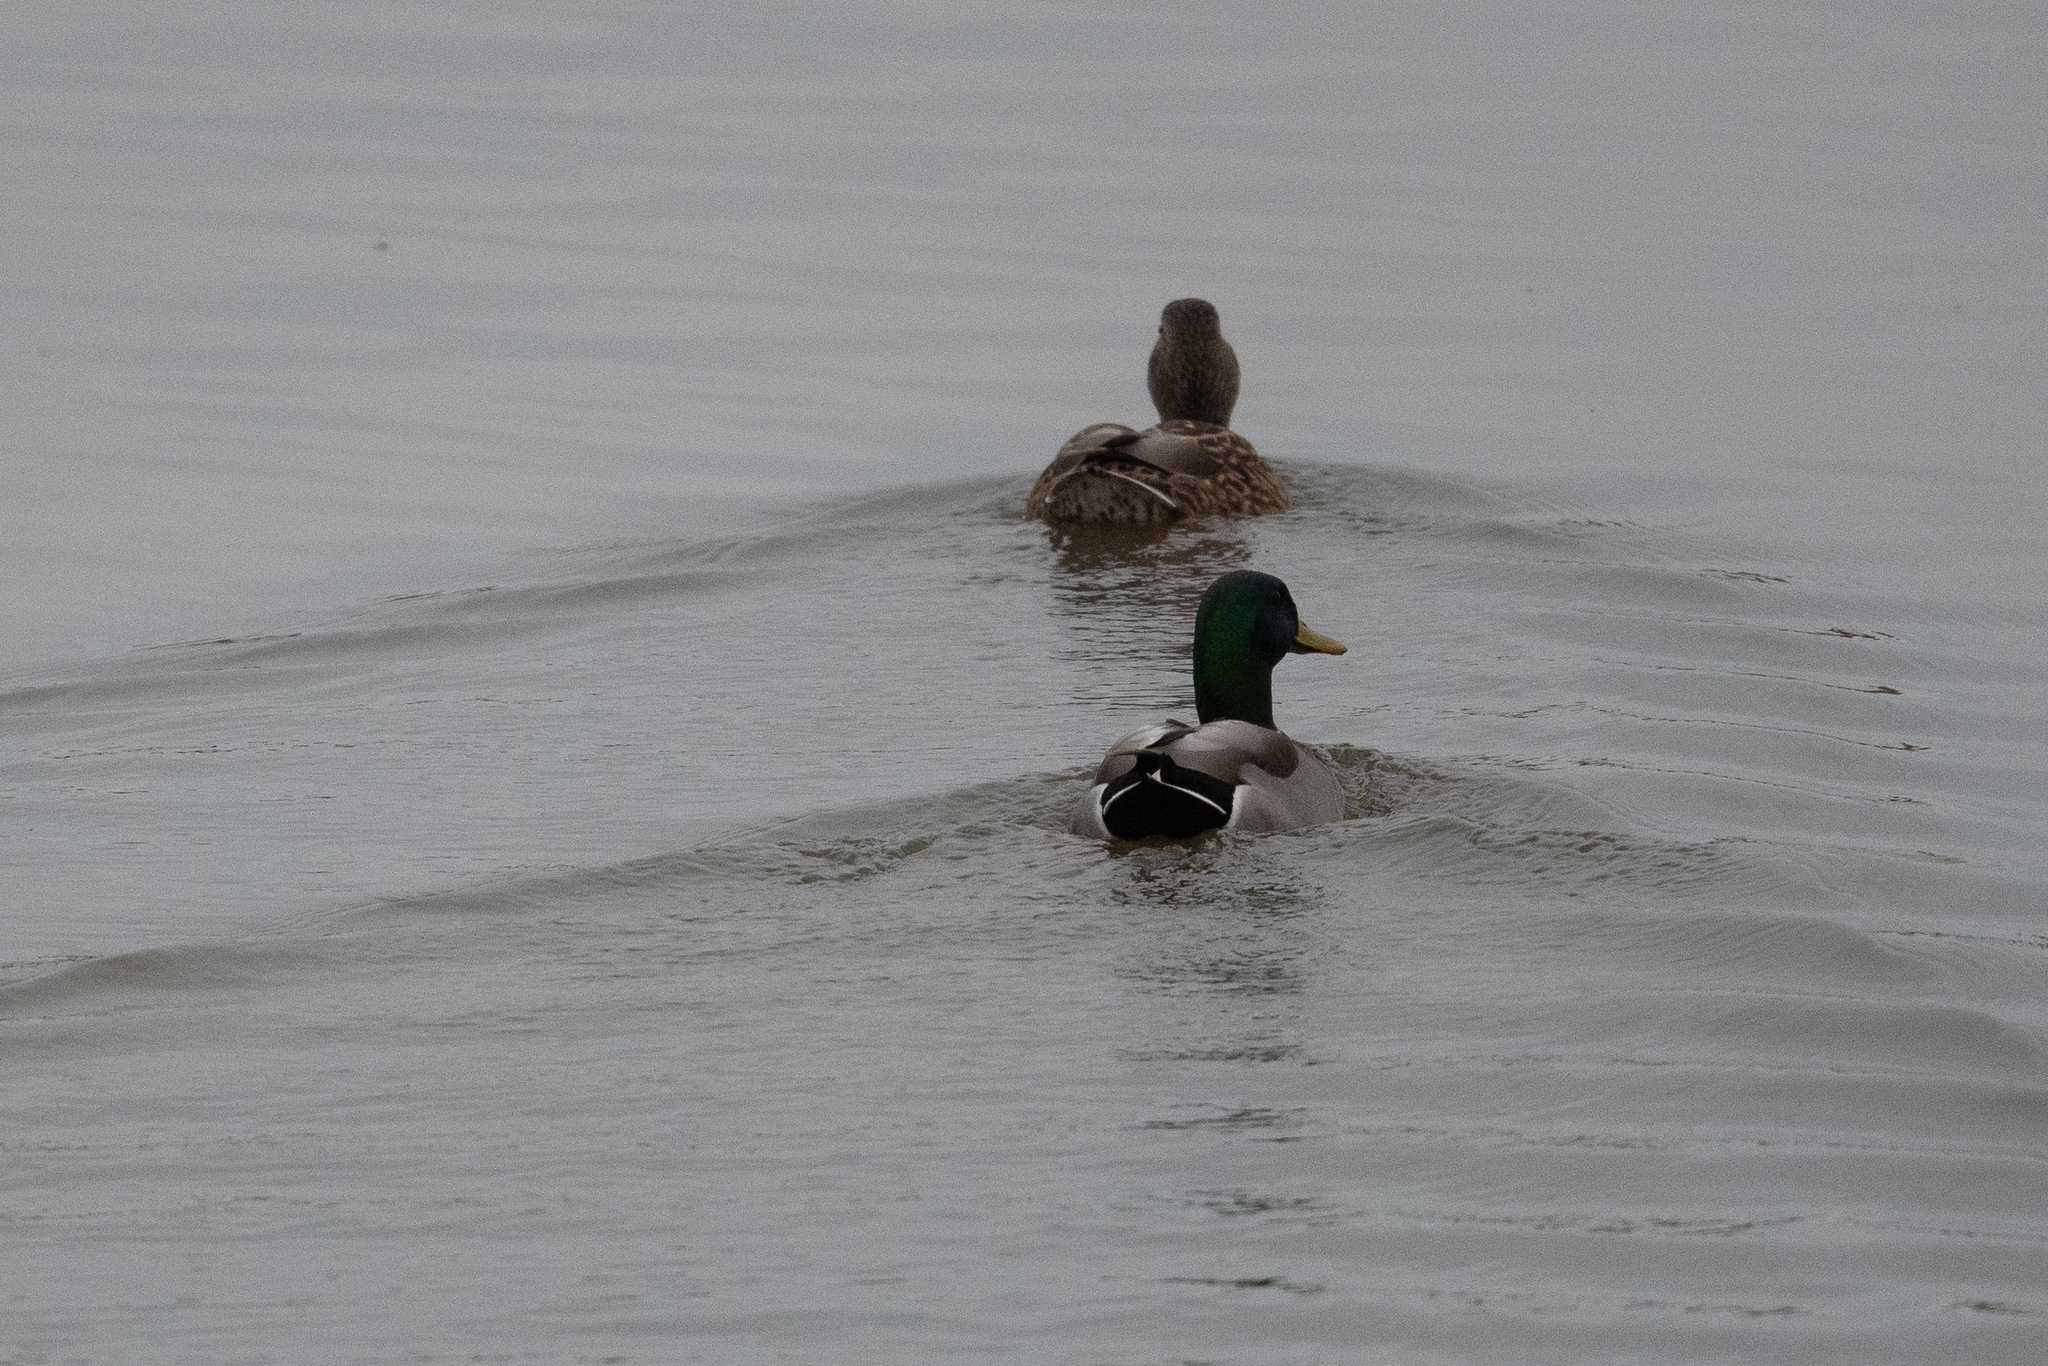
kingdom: Animalia
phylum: Chordata
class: Aves
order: Anseriformes
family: Anatidae
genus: Anas
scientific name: Anas platyrhynchos
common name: Mallard
